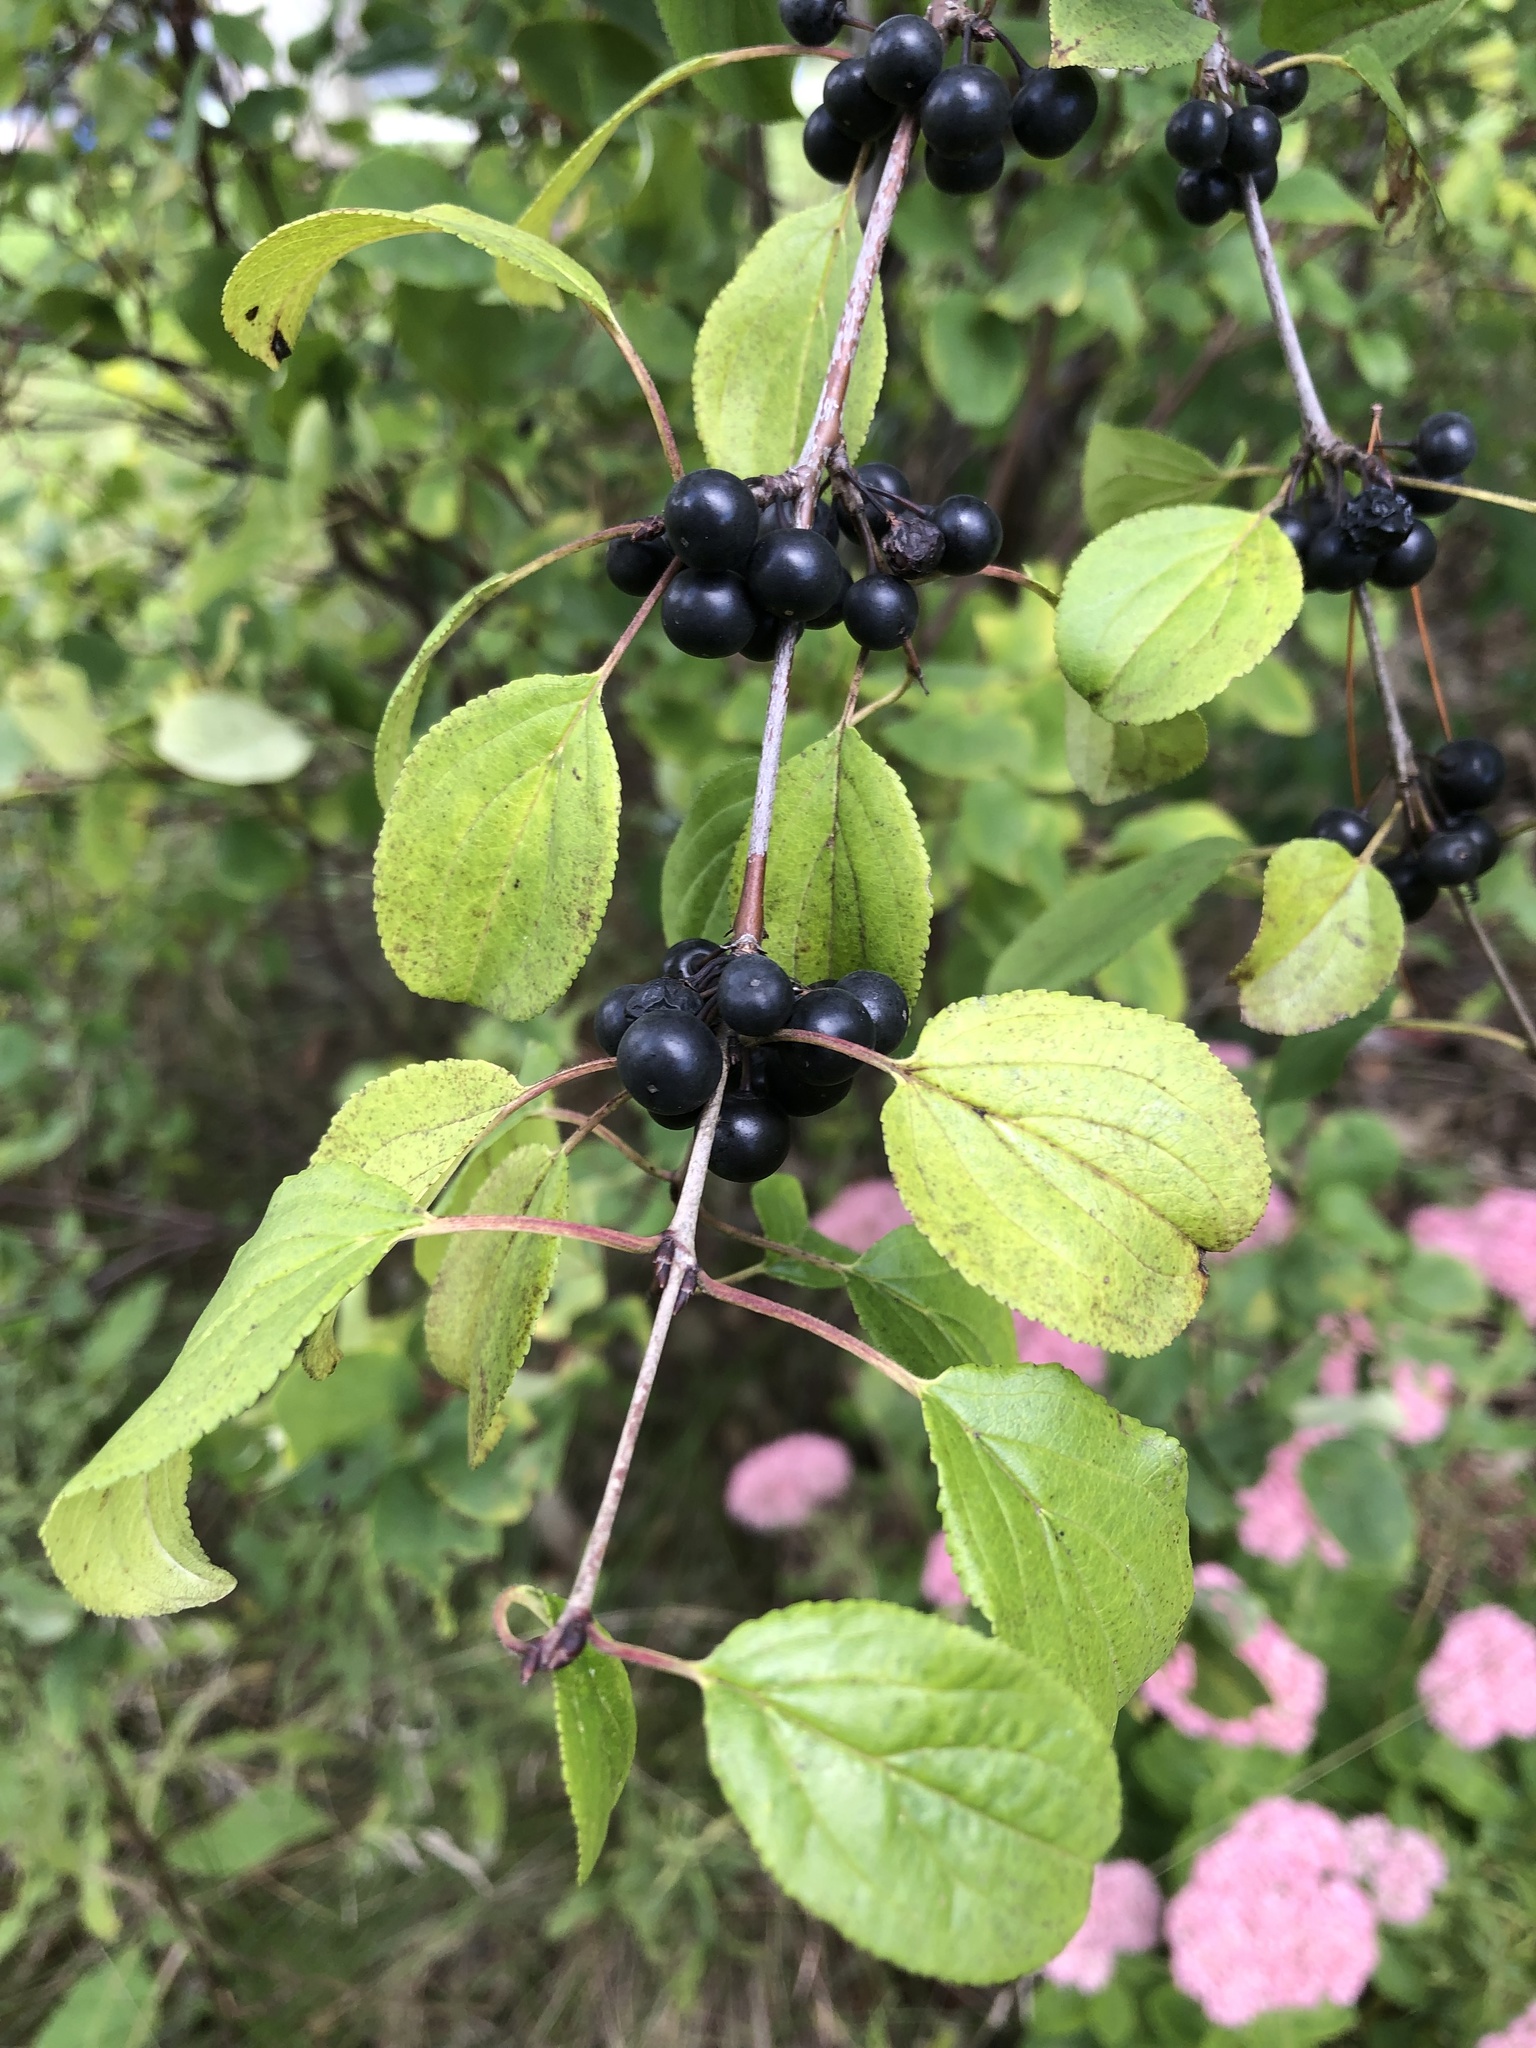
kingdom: Plantae
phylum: Tracheophyta
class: Magnoliopsida
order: Rosales
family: Rhamnaceae
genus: Rhamnus
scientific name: Rhamnus cathartica
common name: Common buckthorn
